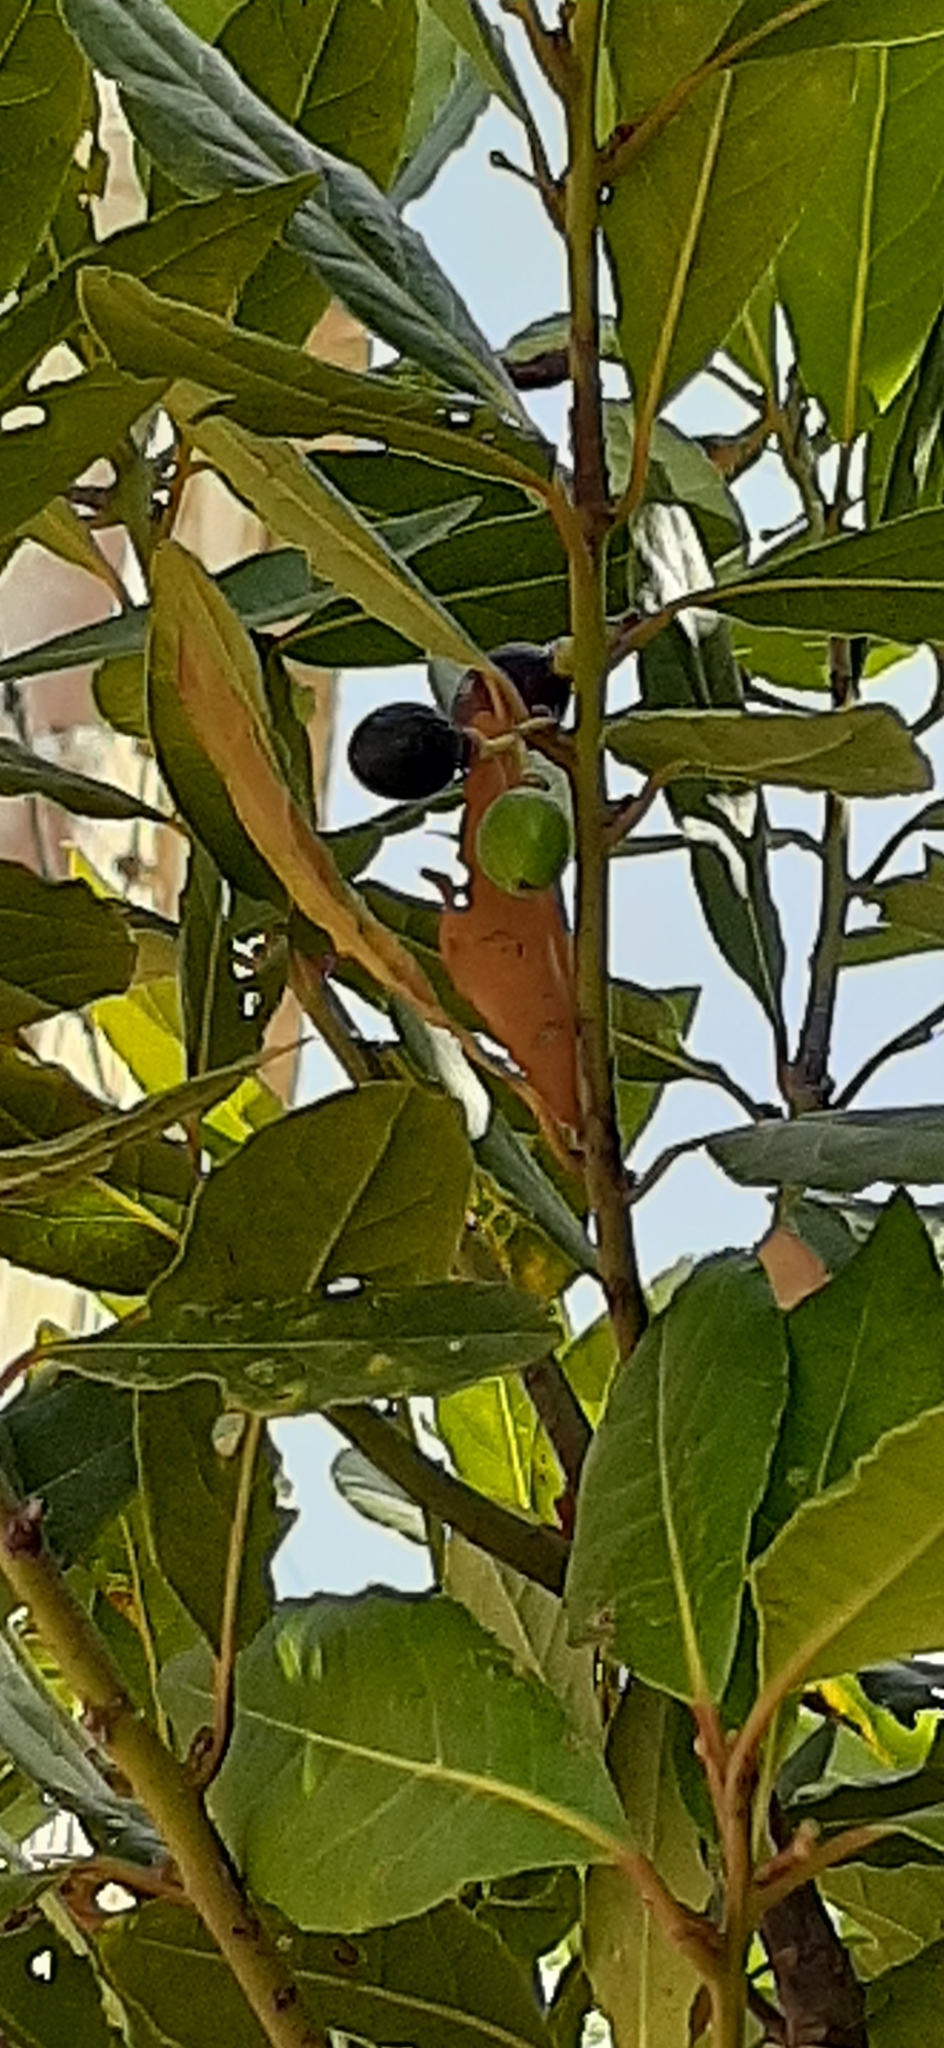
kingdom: Plantae
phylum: Tracheophyta
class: Magnoliopsida
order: Laurales
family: Lauraceae
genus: Laurus
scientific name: Laurus nobilis
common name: Bay
